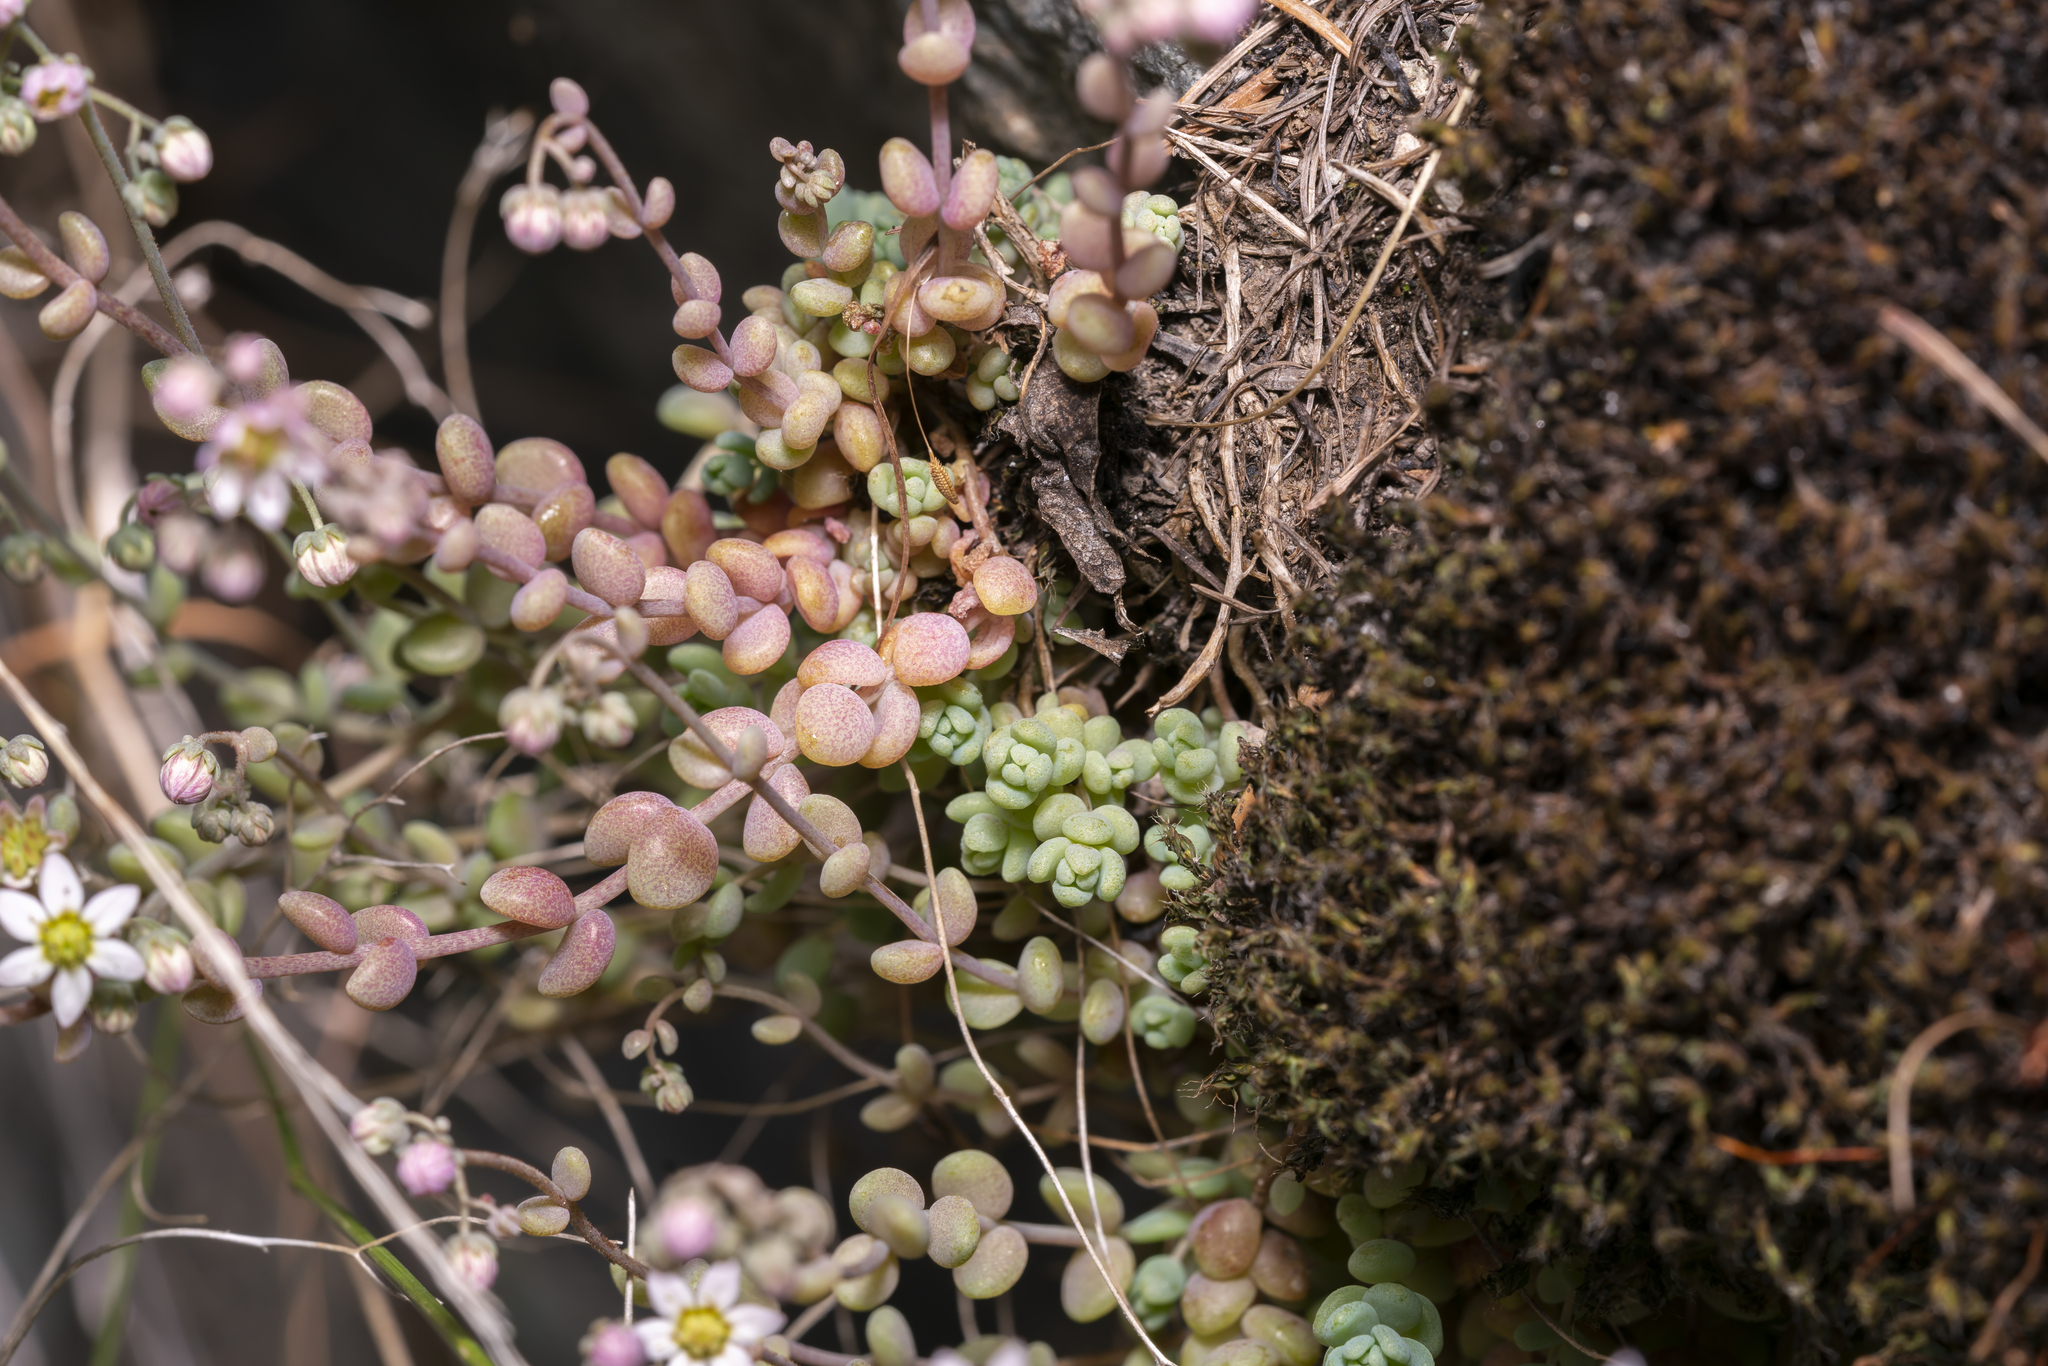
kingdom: Plantae
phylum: Tracheophyta
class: Magnoliopsida
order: Saxifragales
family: Crassulaceae
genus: Sedum
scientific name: Sedum dasyphyllum
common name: Thick-leaf stonecrop
